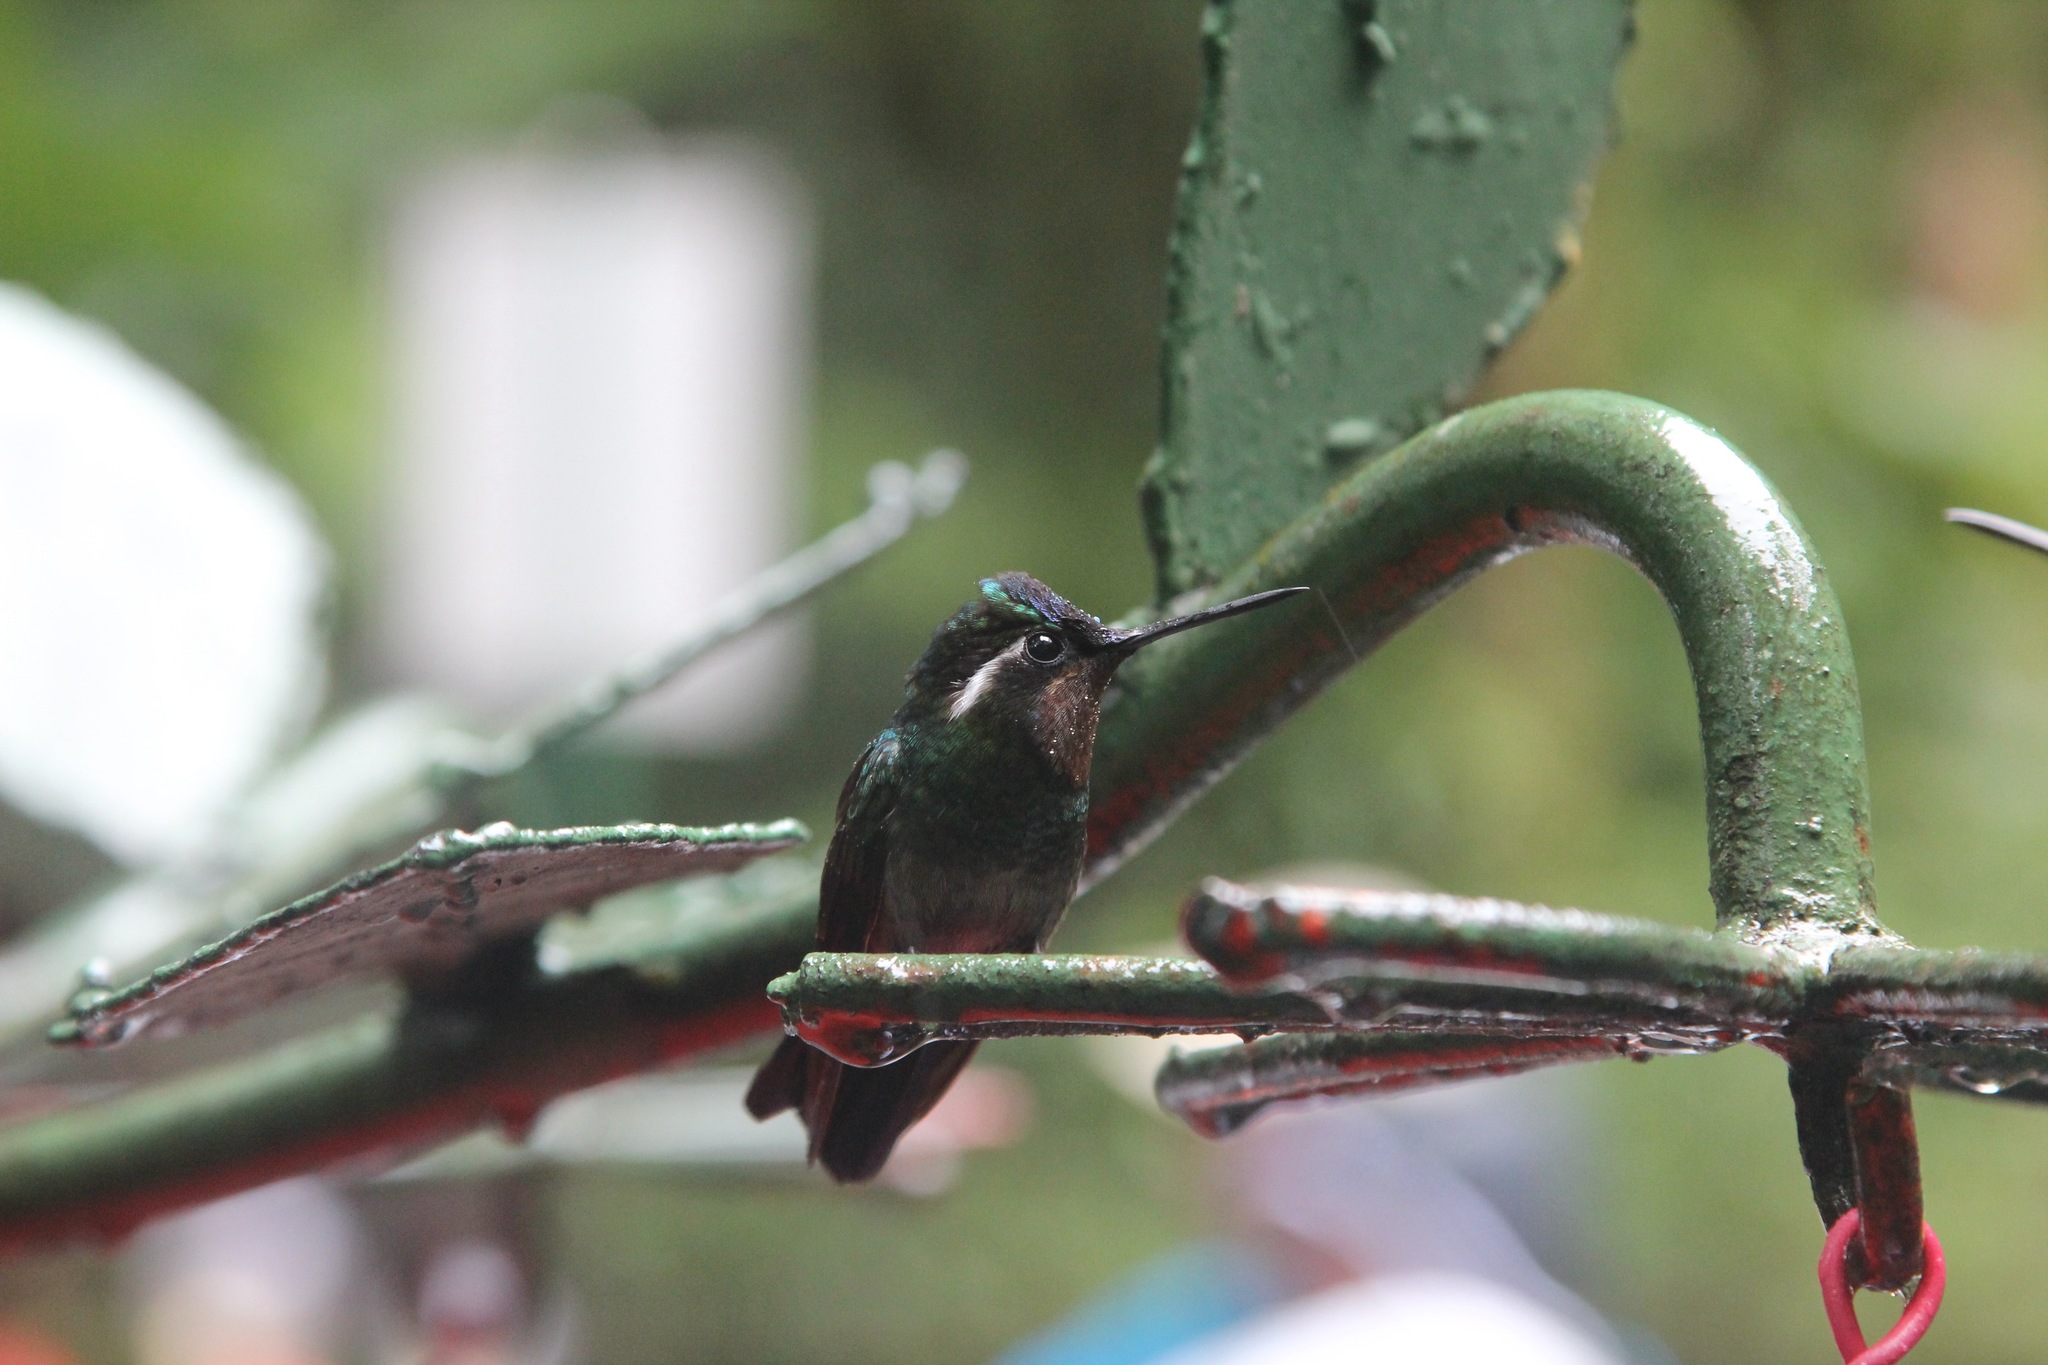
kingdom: Animalia
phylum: Chordata
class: Aves
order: Apodiformes
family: Trochilidae
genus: Lampornis
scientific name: Lampornis calolaemus
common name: Purple-throated mountain-gem
